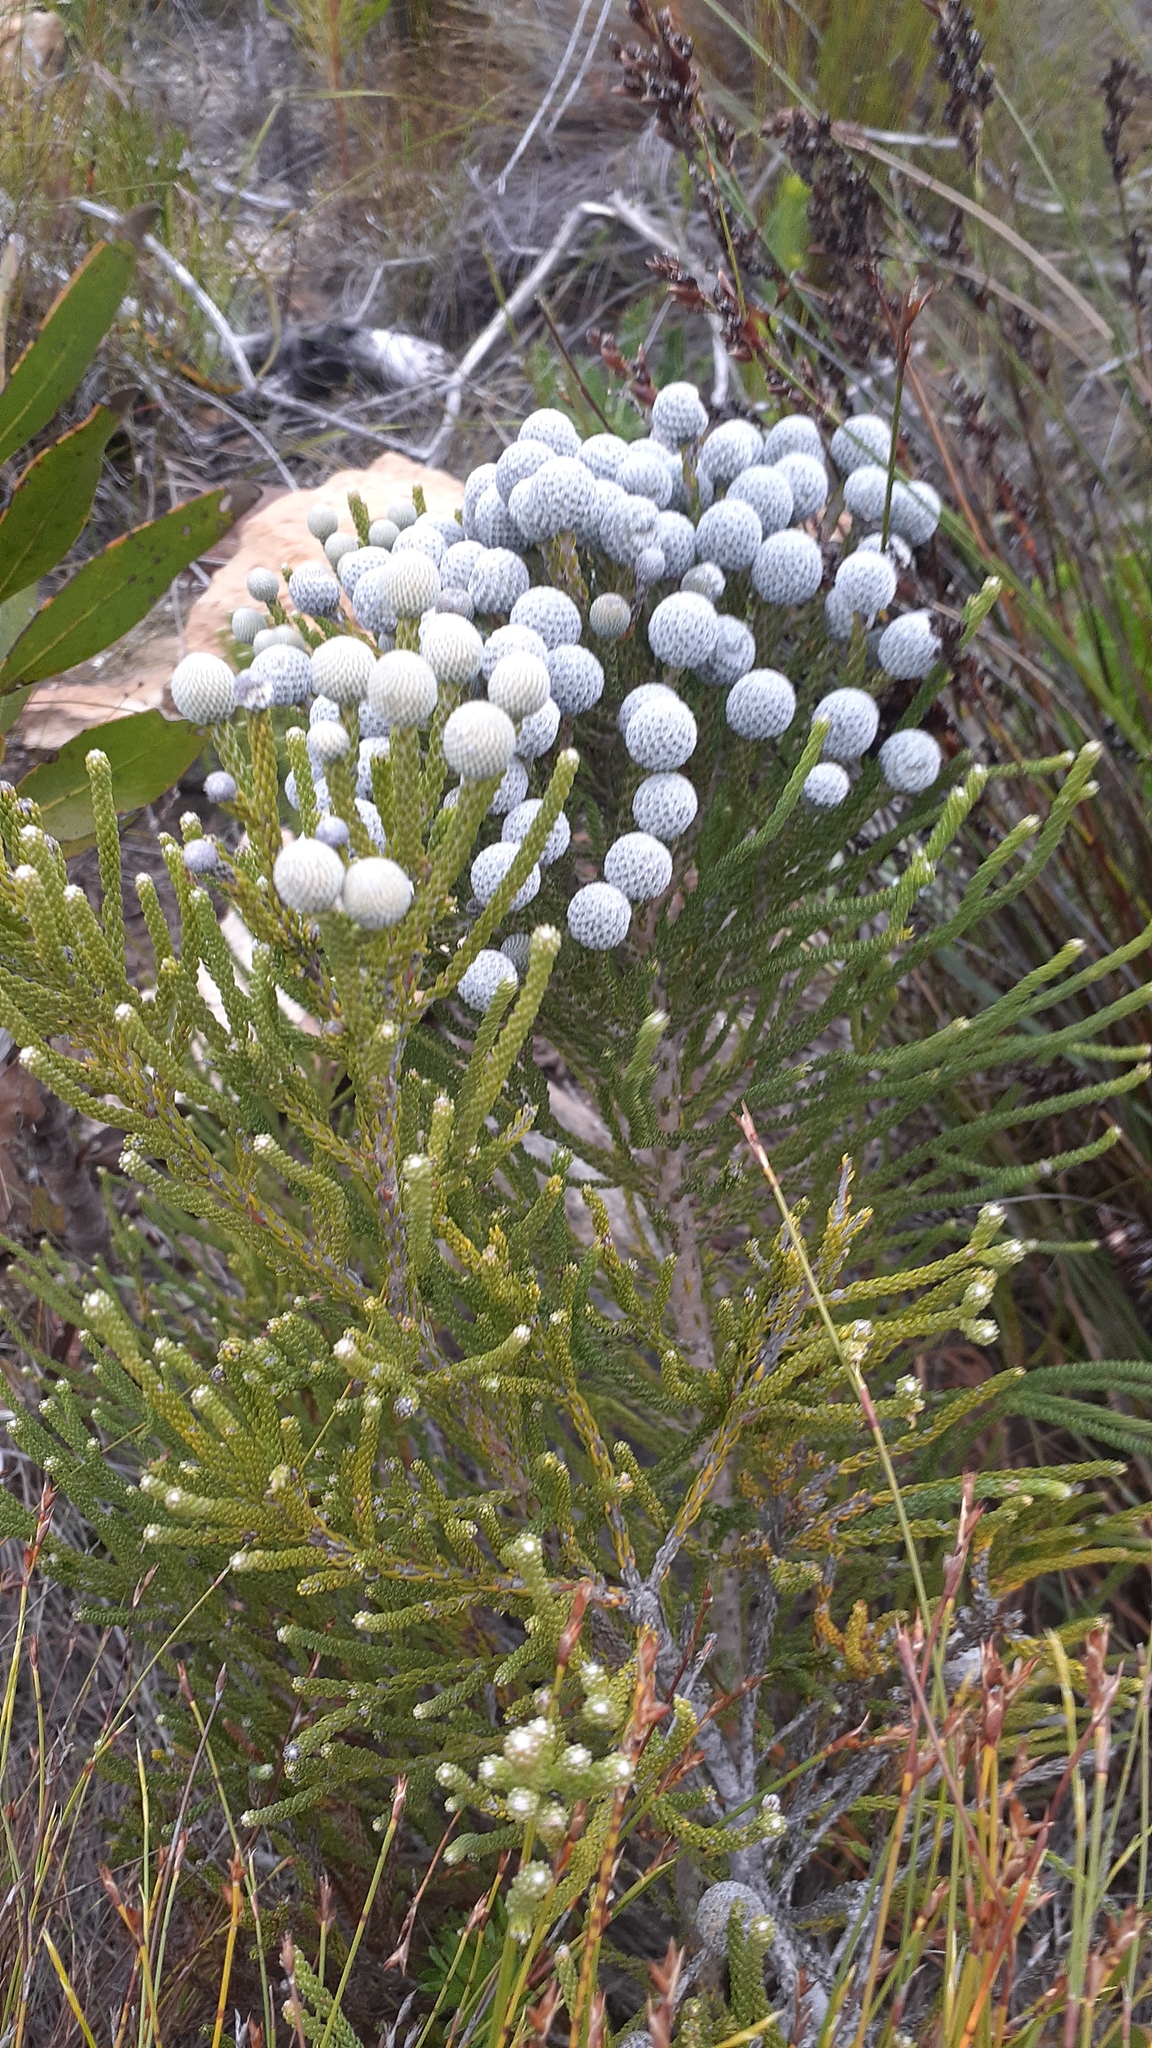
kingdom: Plantae
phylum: Tracheophyta
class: Magnoliopsida
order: Bruniales
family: Bruniaceae
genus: Brunia
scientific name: Brunia noduliflora
